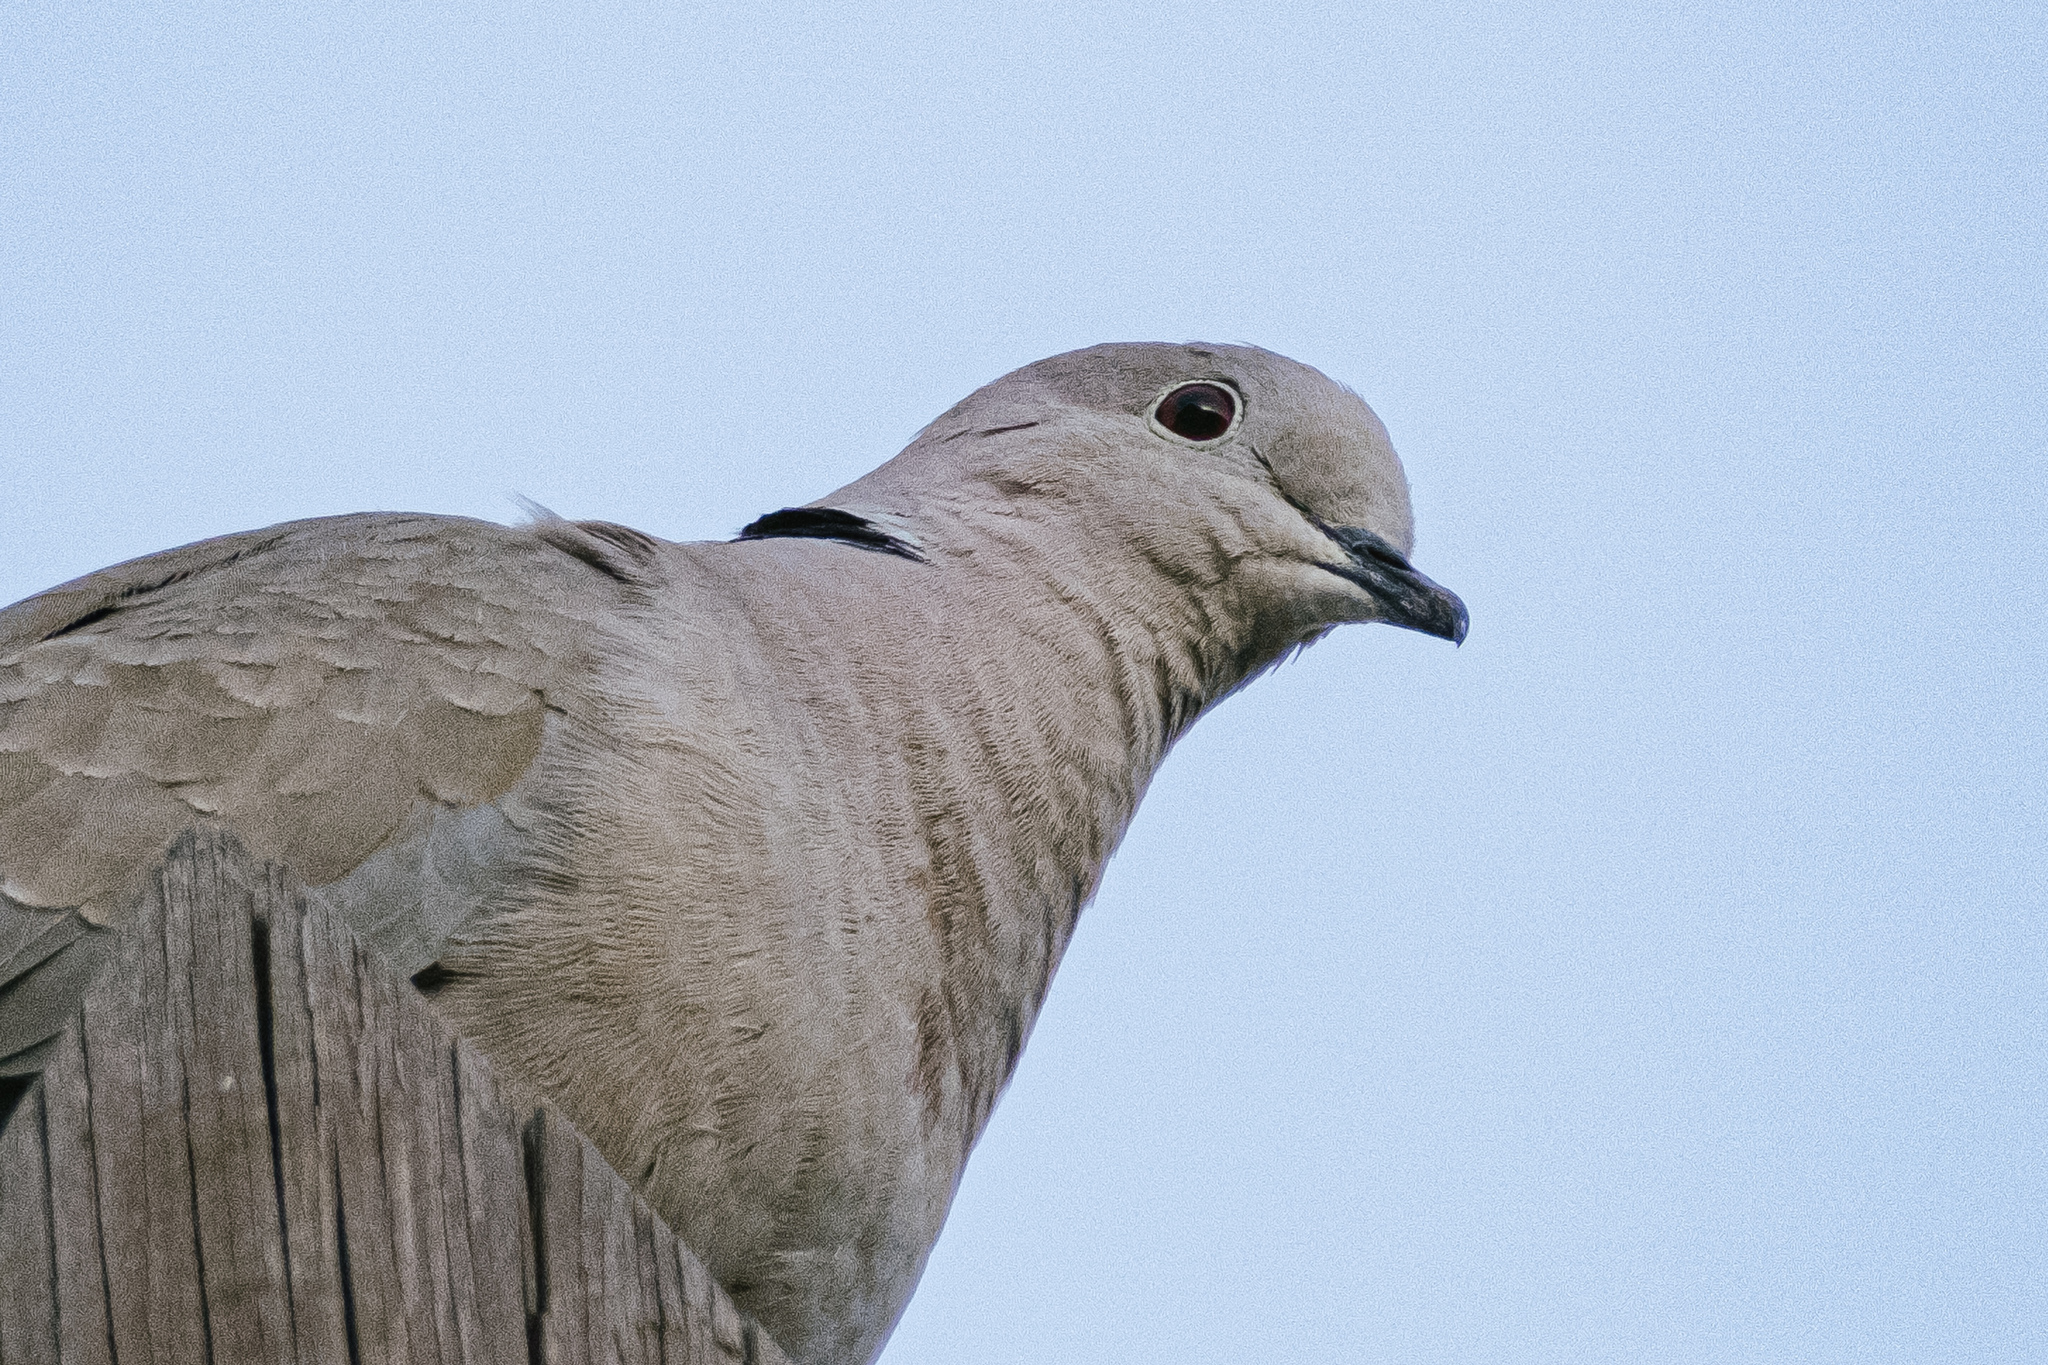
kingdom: Animalia
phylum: Chordata
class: Aves
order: Columbiformes
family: Columbidae
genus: Streptopelia
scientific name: Streptopelia decaocto
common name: Eurasian collared dove
